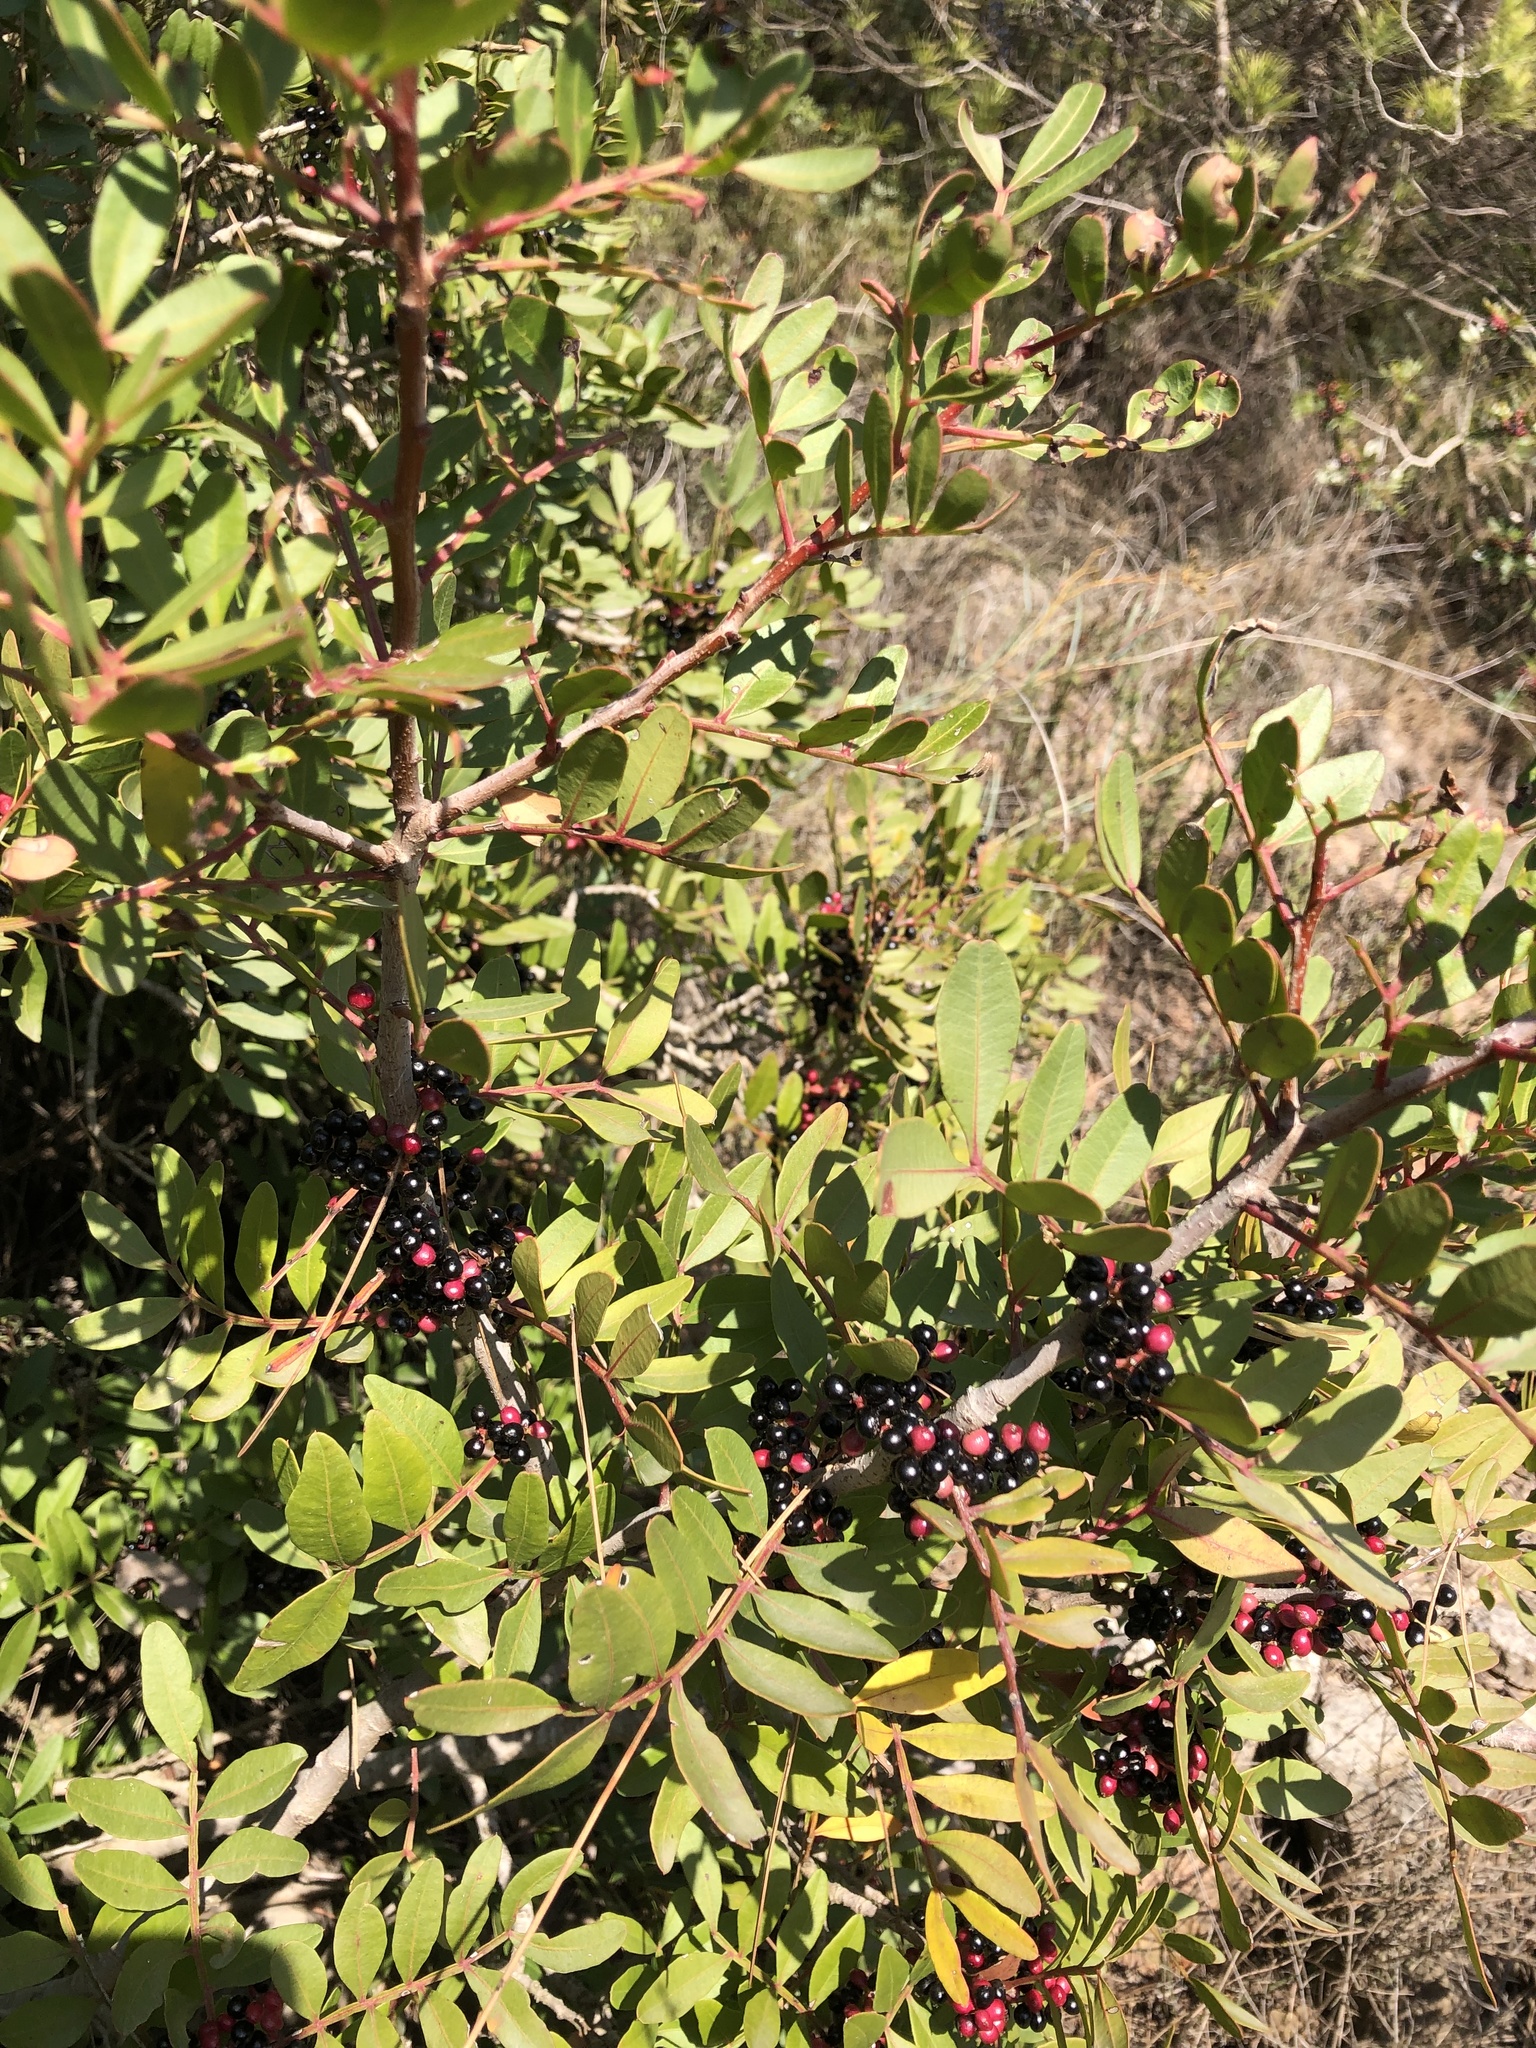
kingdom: Plantae
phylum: Tracheophyta
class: Magnoliopsida
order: Sapindales
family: Anacardiaceae
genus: Pistacia
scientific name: Pistacia lentiscus
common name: Lentisk
